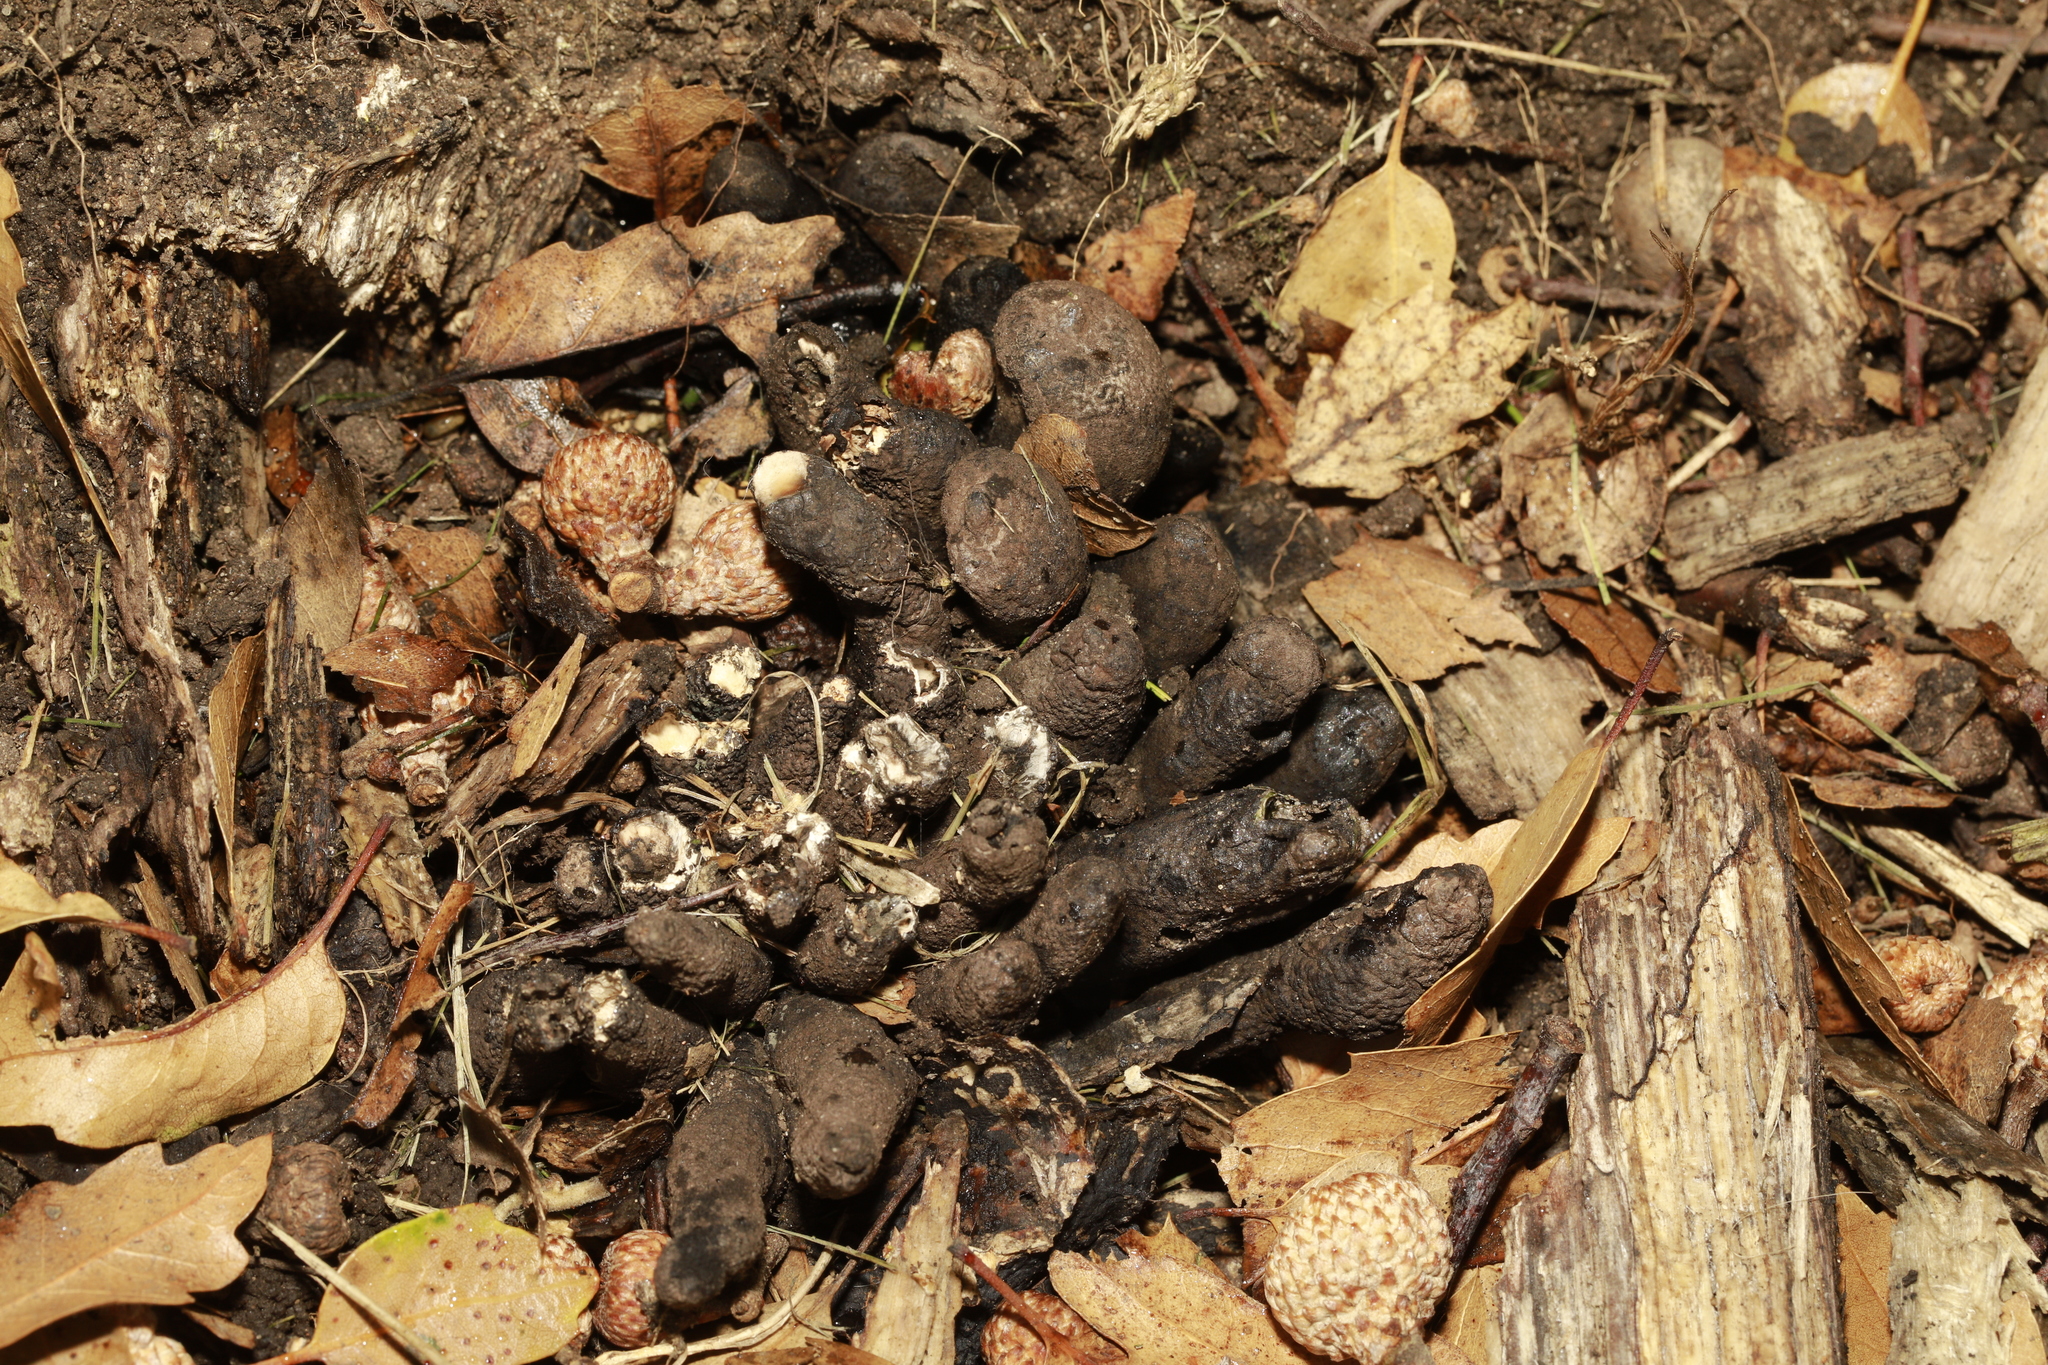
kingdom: Fungi
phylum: Ascomycota
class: Sordariomycetes
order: Xylariales
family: Xylariaceae
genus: Xylaria
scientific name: Xylaria polymorpha
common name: Dead man's fingers
